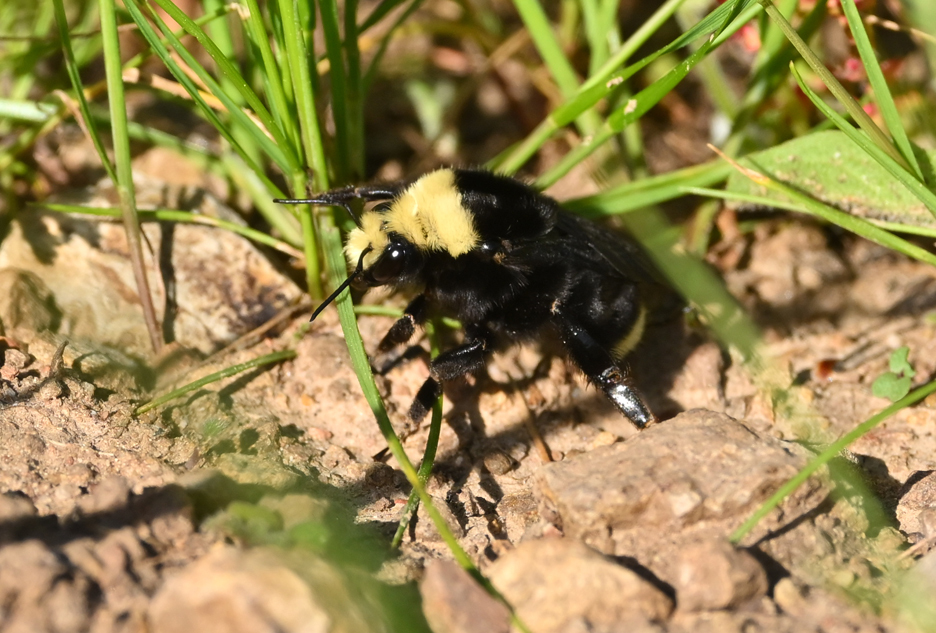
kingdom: Animalia
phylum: Arthropoda
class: Insecta
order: Hymenoptera
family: Apidae
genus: Bombus
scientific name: Bombus vosnesenskii
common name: Vosnesensky bumble bee
